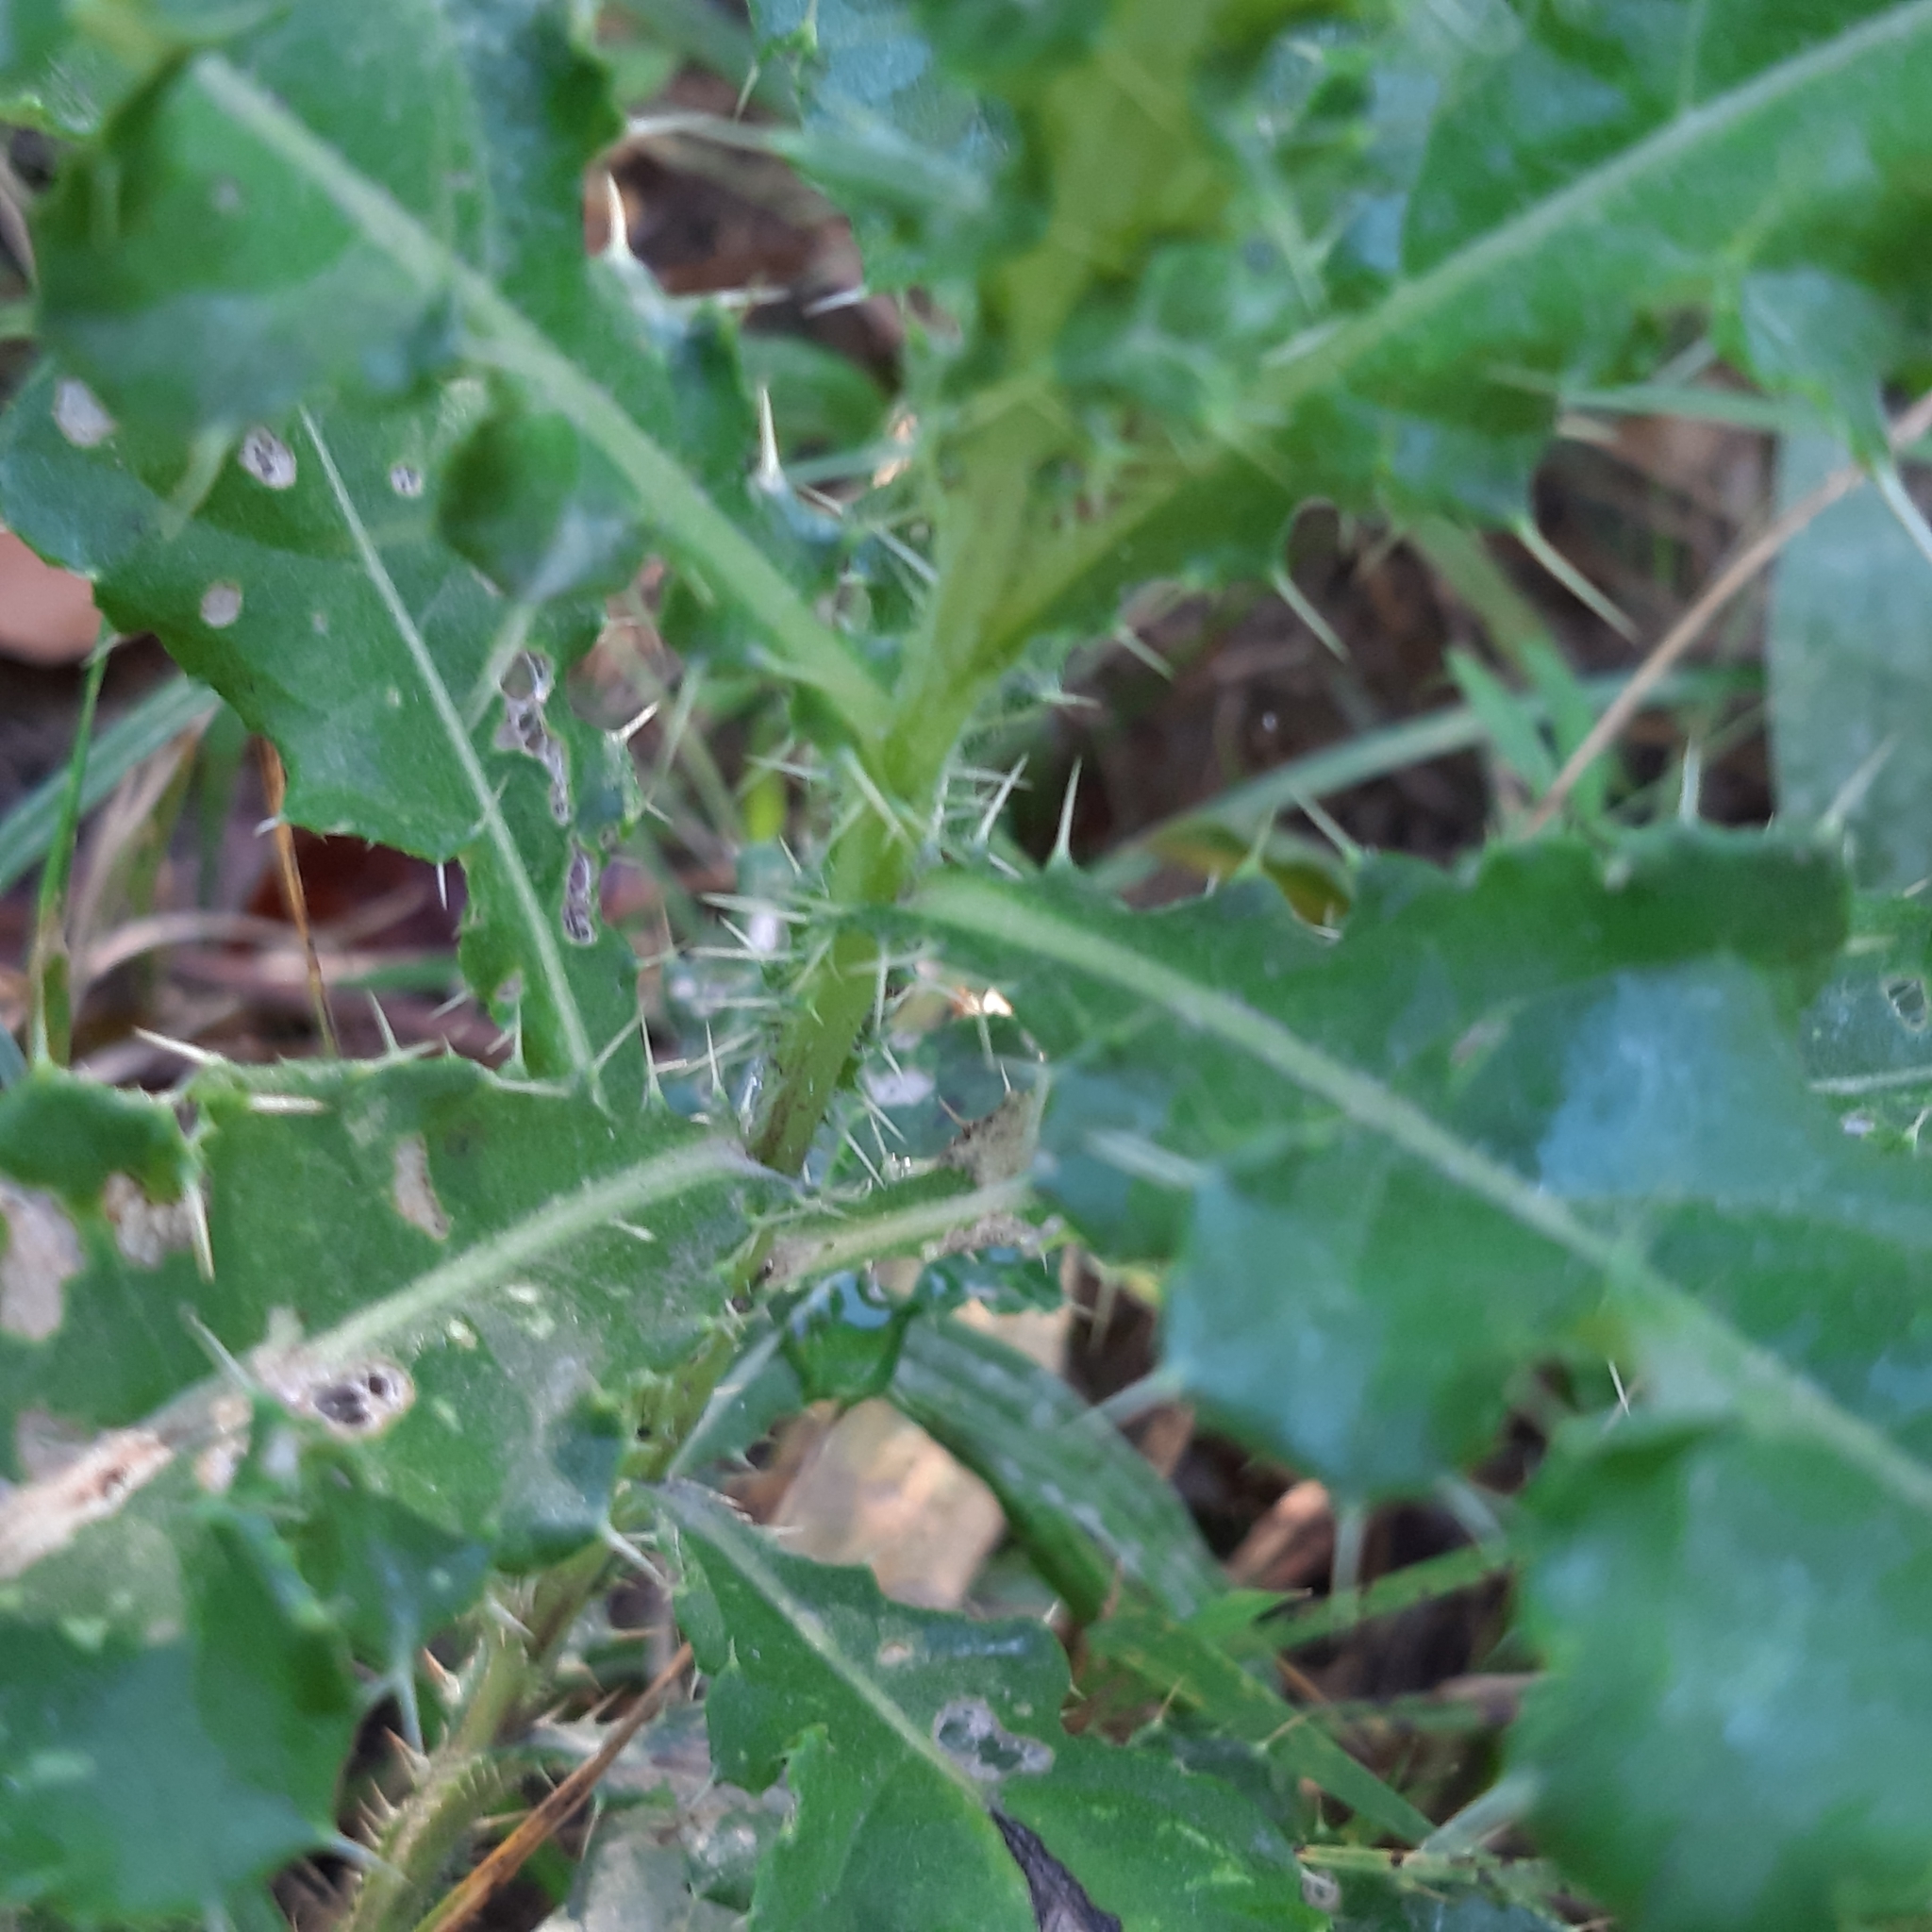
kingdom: Plantae
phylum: Tracheophyta
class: Magnoliopsida
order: Asterales
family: Asteraceae
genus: Cirsium
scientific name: Cirsium arvense
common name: Creeping thistle
